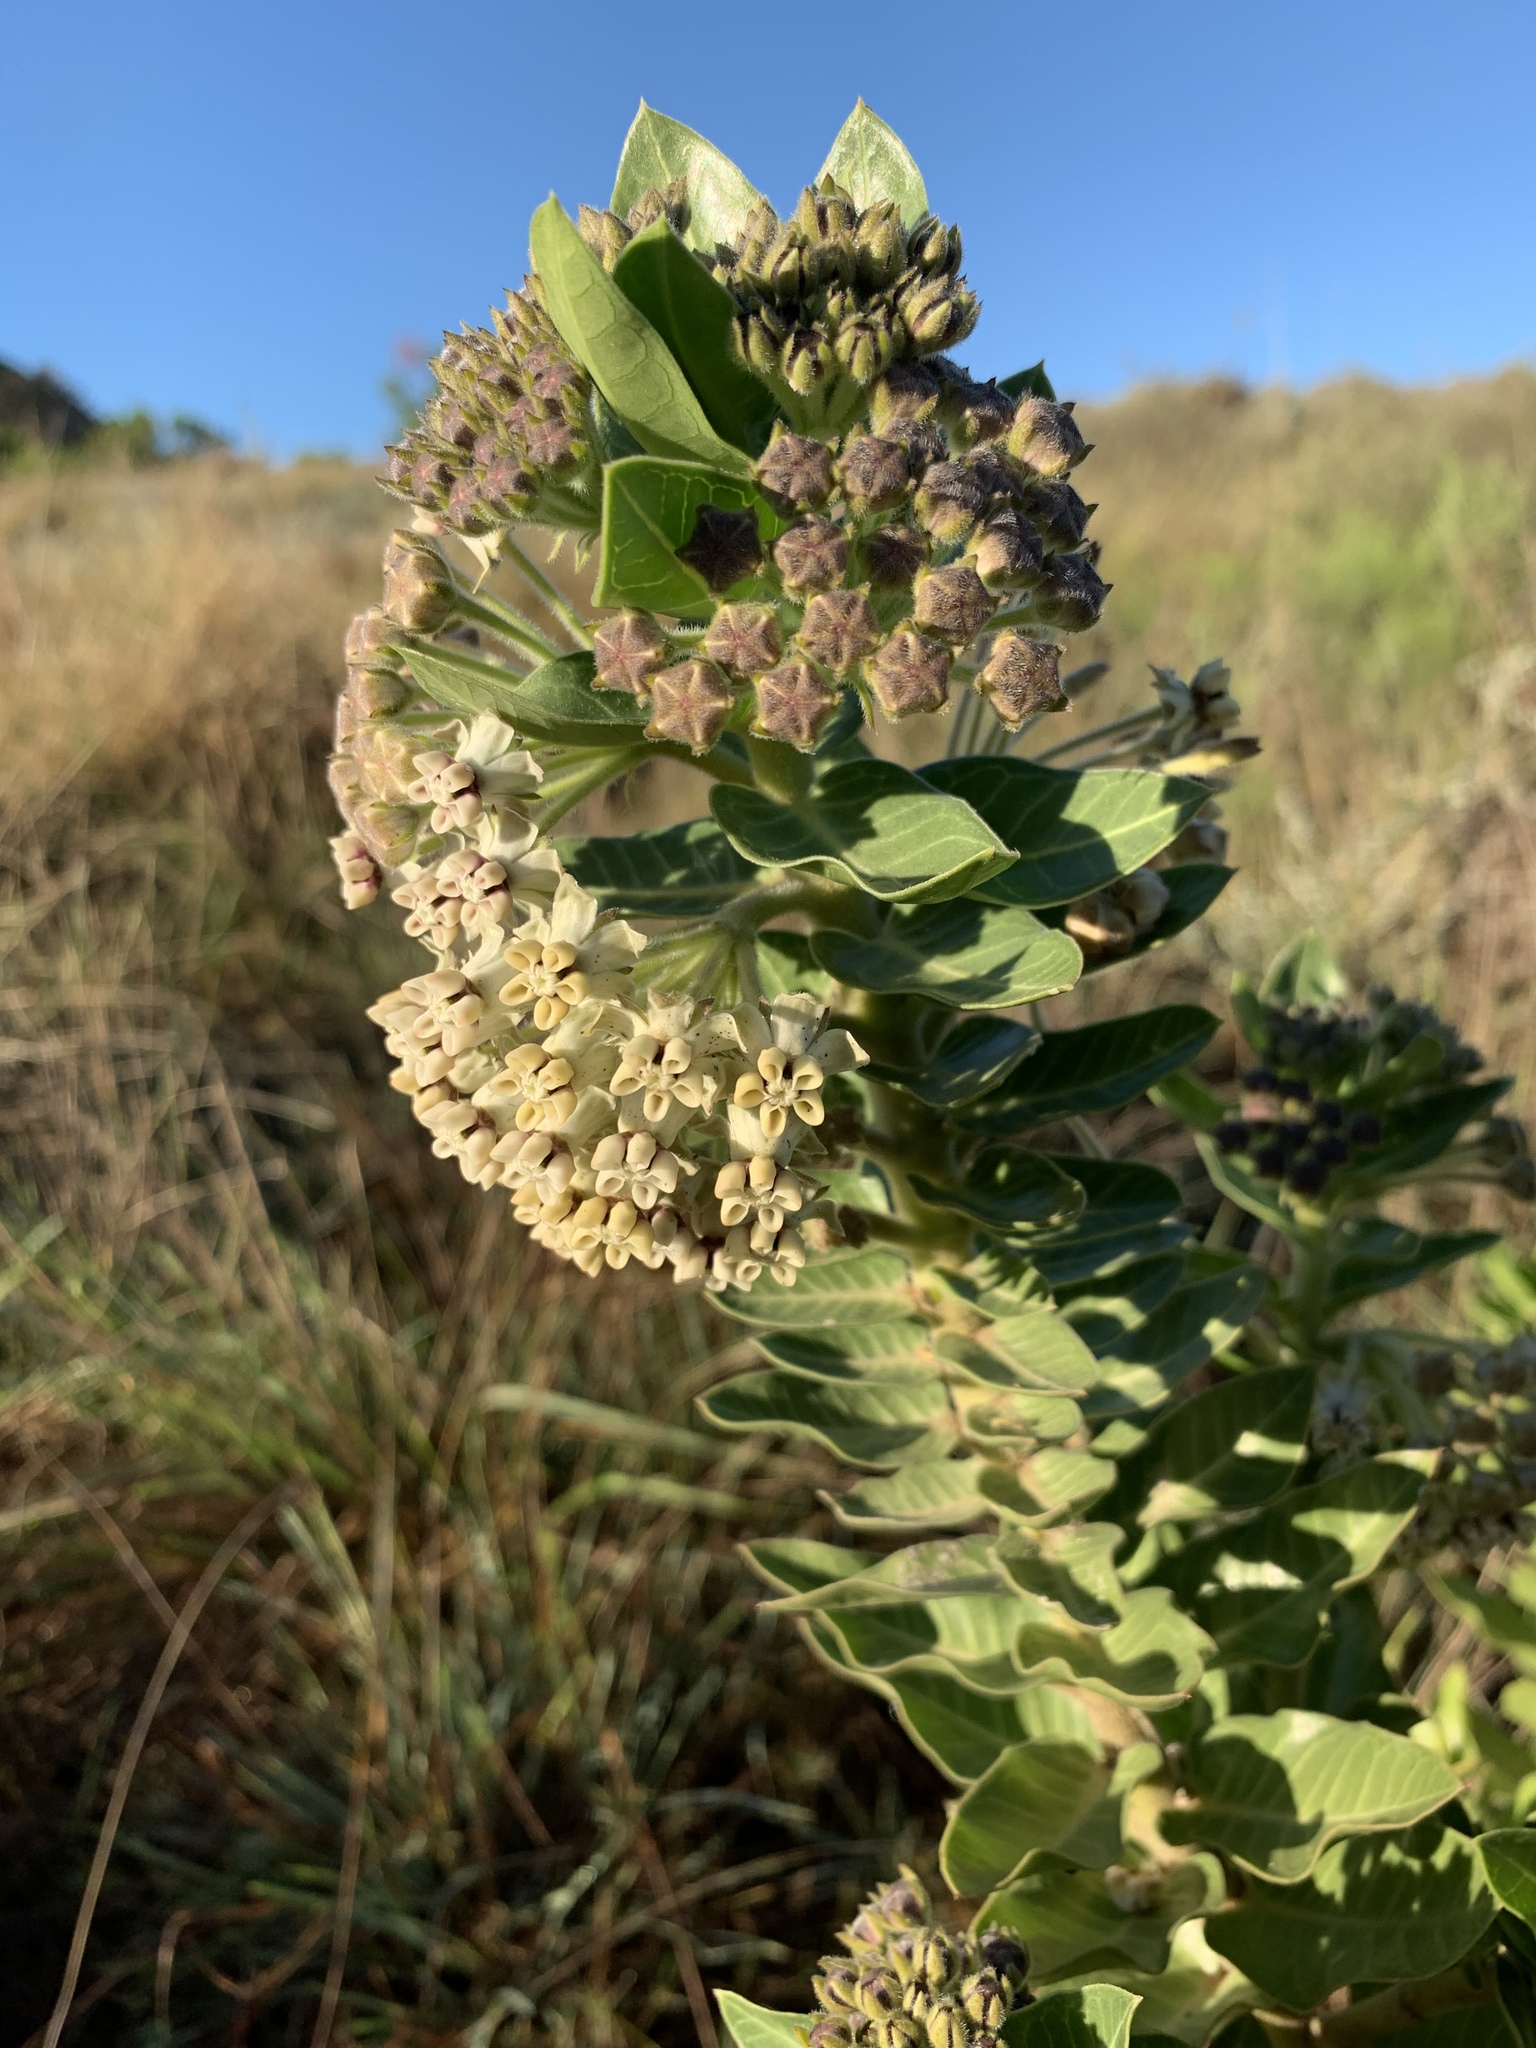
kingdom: Plantae
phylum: Tracheophyta
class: Magnoliopsida
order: Gentianales
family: Apocynaceae
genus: Gomphocarpus
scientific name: Gomphocarpus cancellatus
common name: Wild cotton
